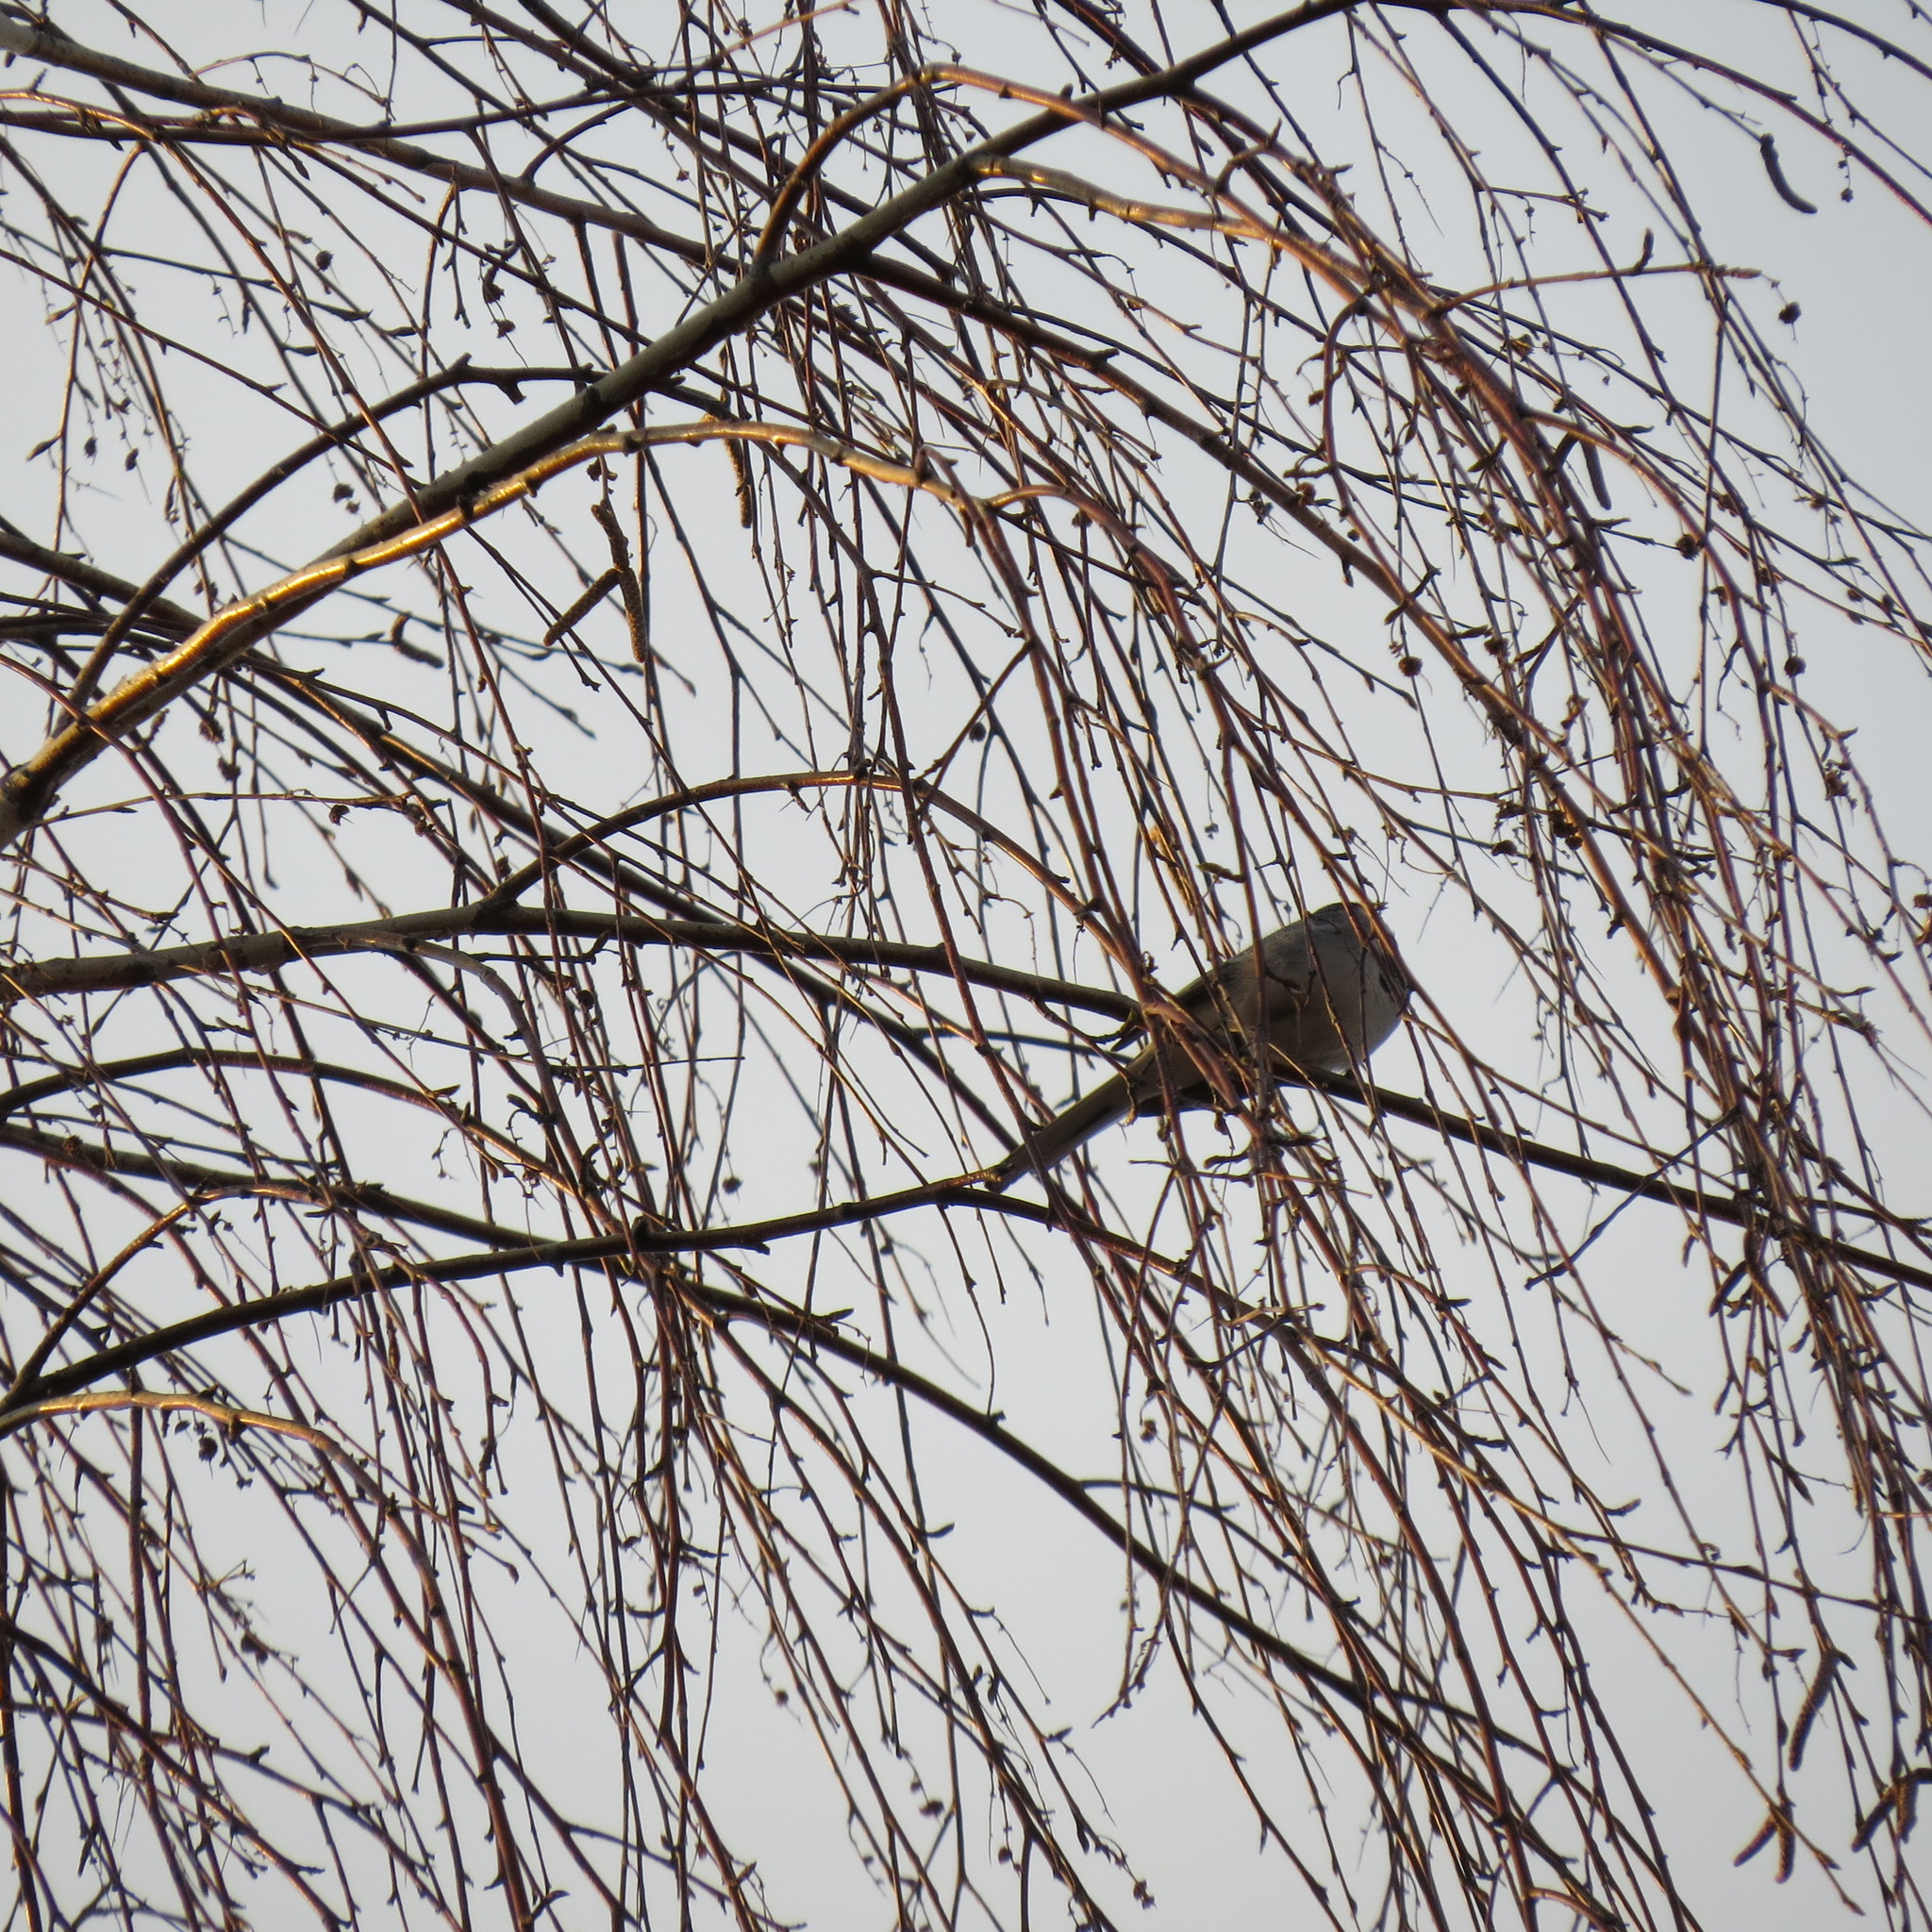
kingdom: Animalia
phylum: Chordata
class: Aves
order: Passeriformes
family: Motacillidae
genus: Motacilla
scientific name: Motacilla alba
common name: White wagtail
